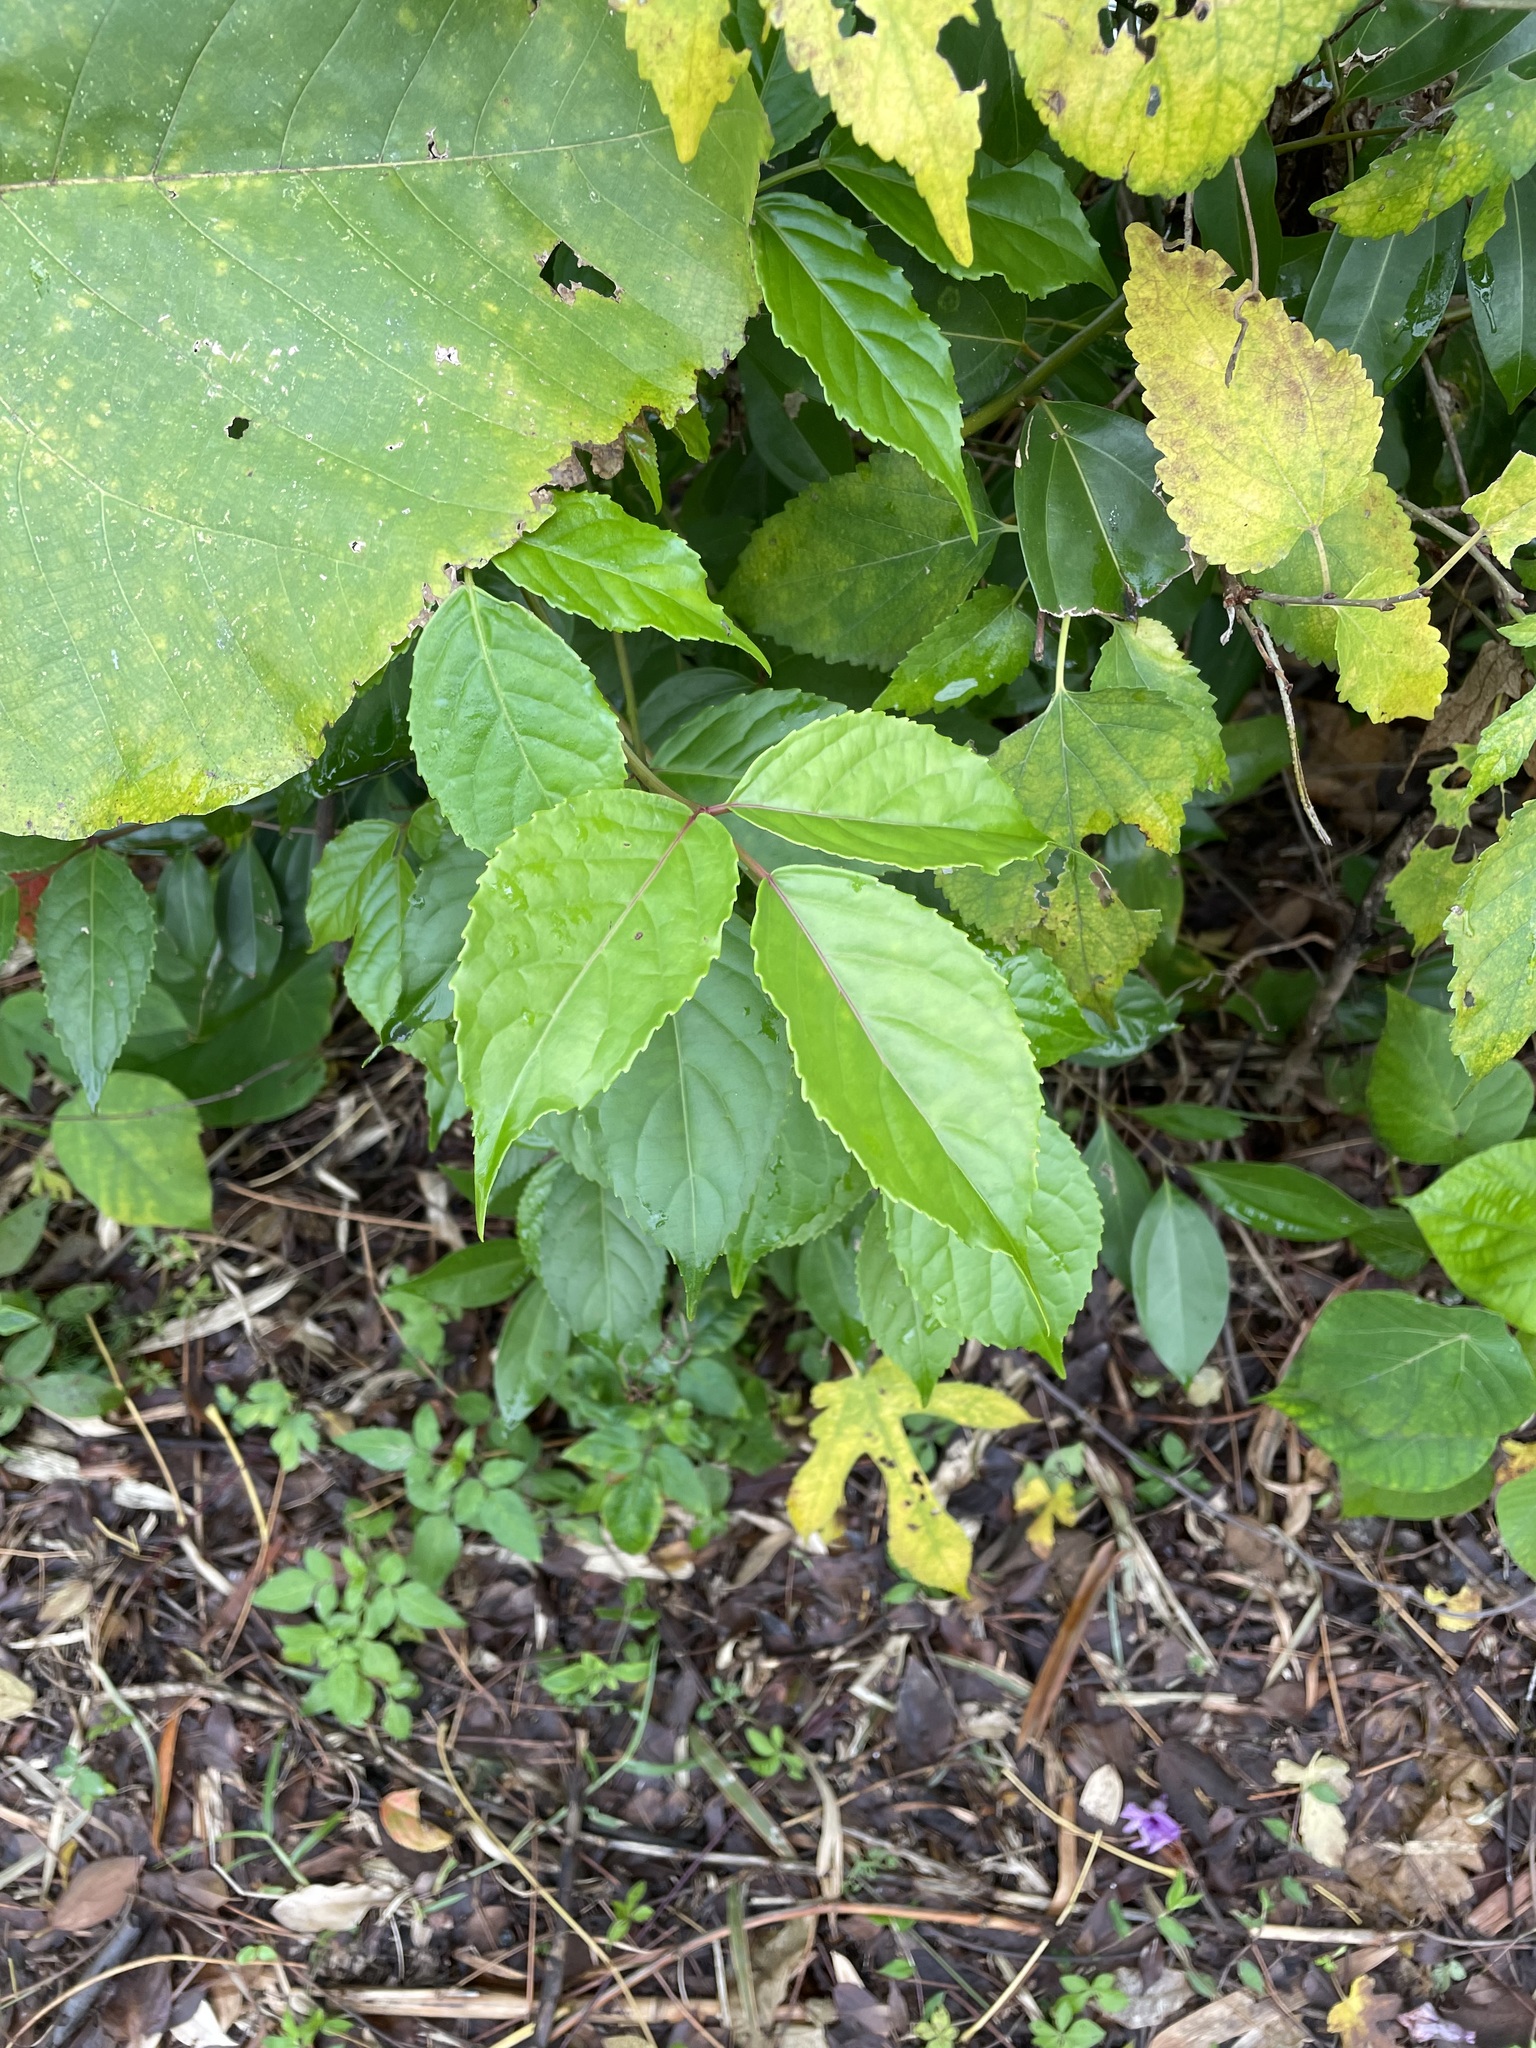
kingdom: Plantae
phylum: Tracheophyta
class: Magnoliopsida
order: Malpighiales
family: Phyllanthaceae
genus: Bischofia
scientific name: Bischofia javanica
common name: Javanese bishopwood
